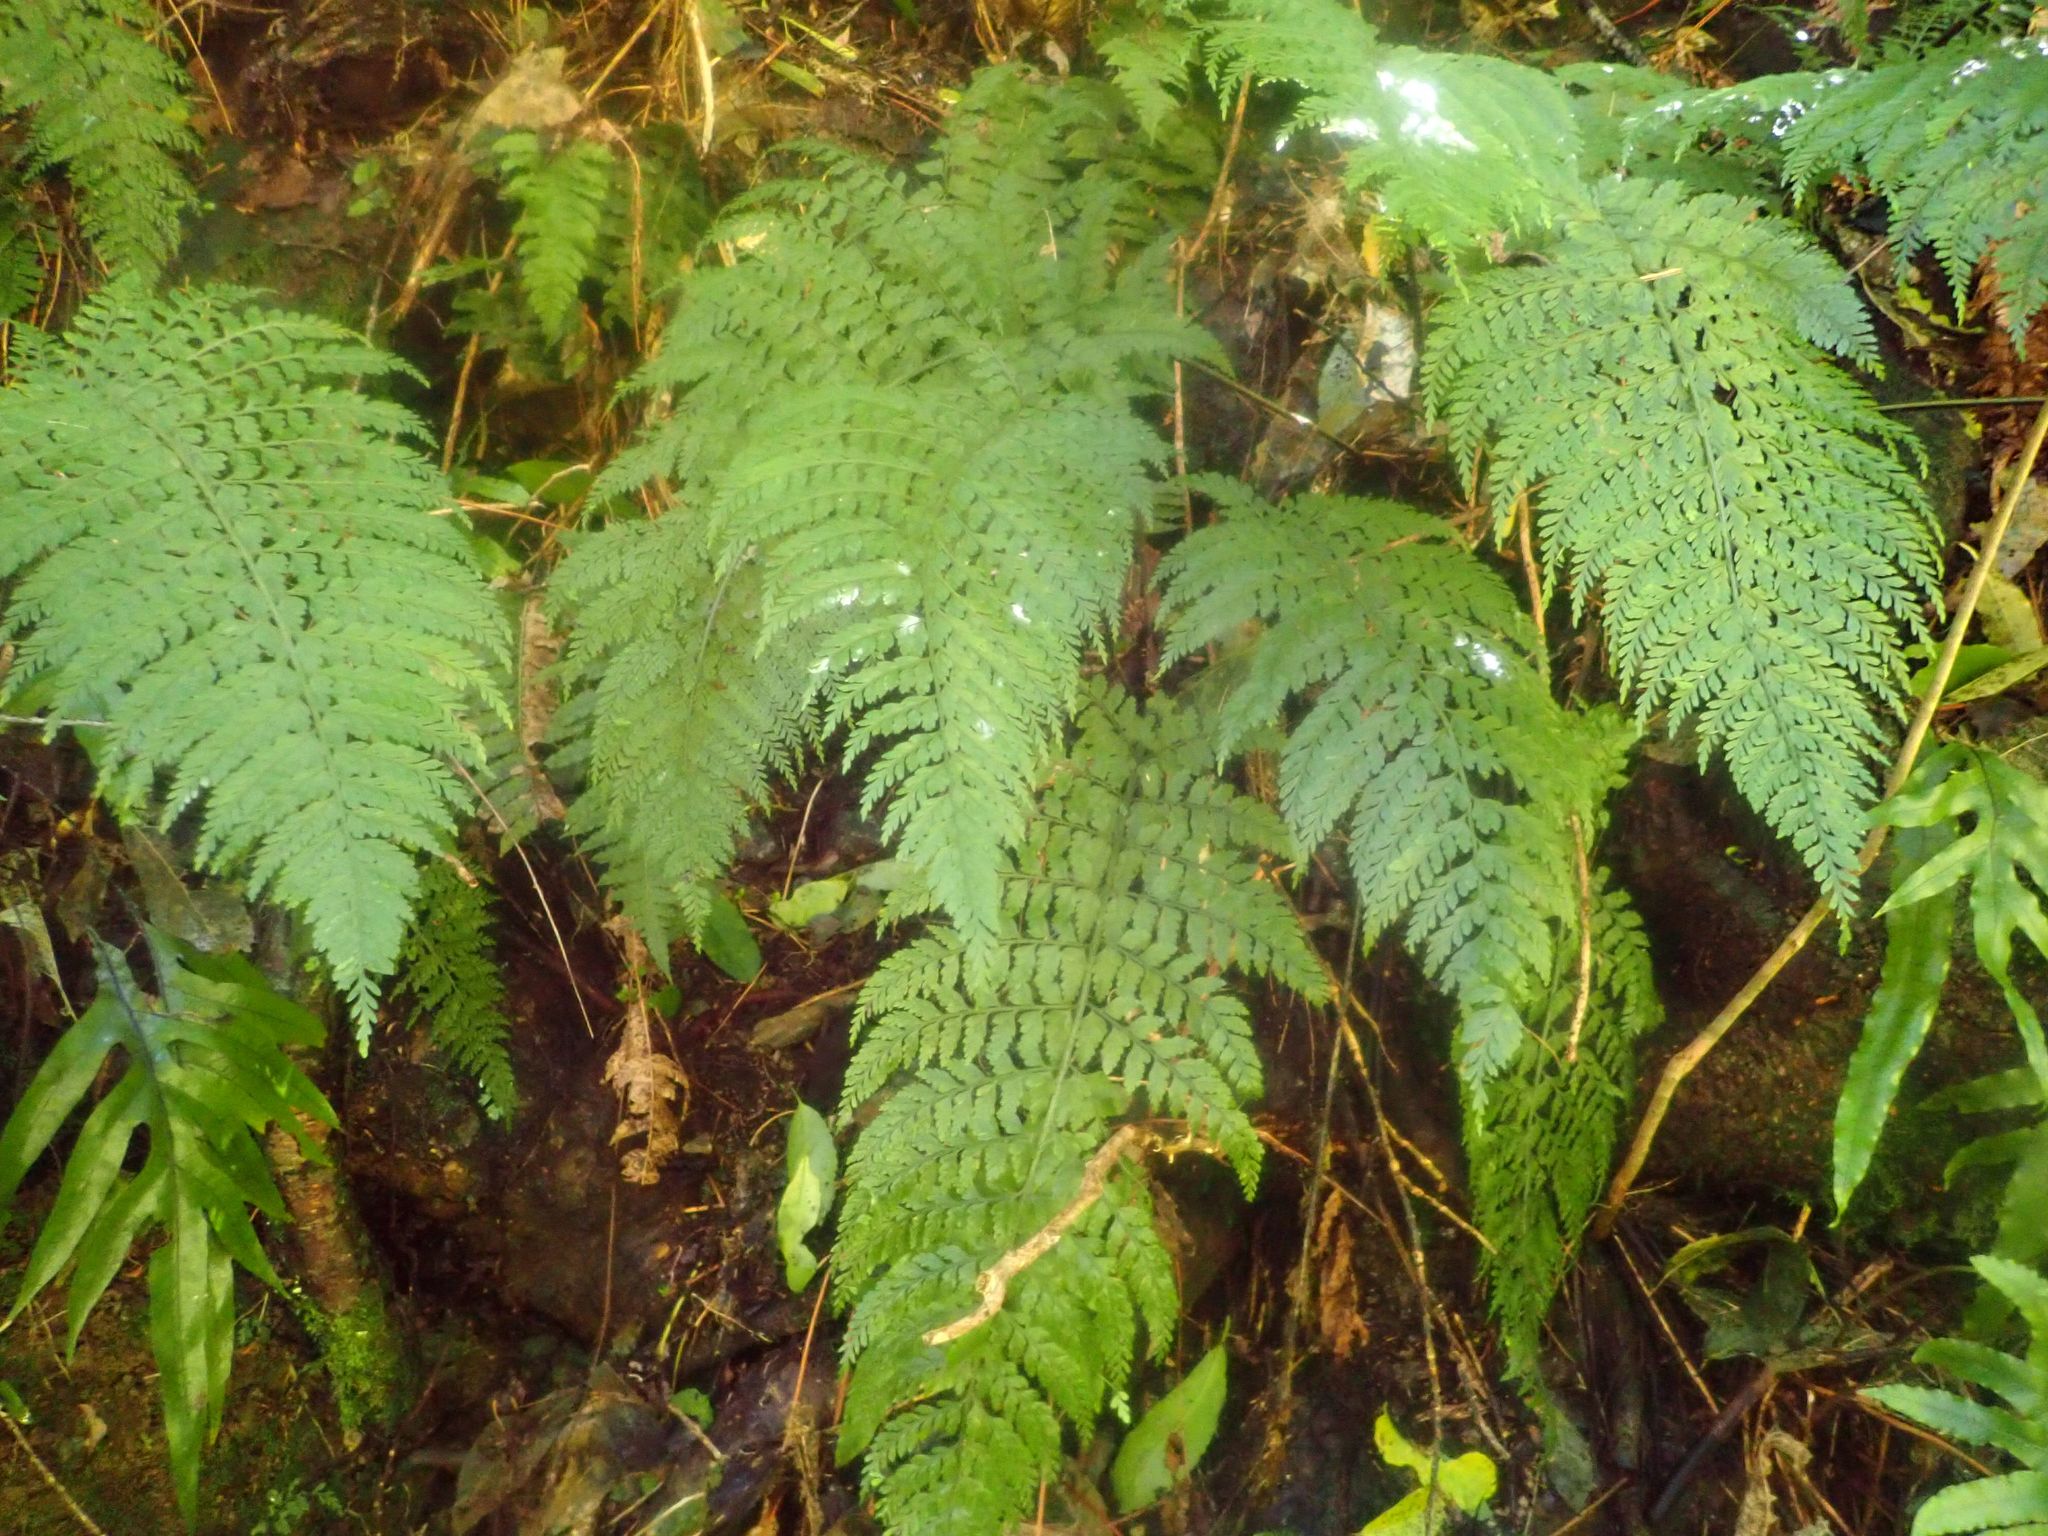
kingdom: Plantae
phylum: Tracheophyta
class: Polypodiopsida
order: Polypodiales
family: Aspleniaceae
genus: Asplenium
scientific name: Asplenium
